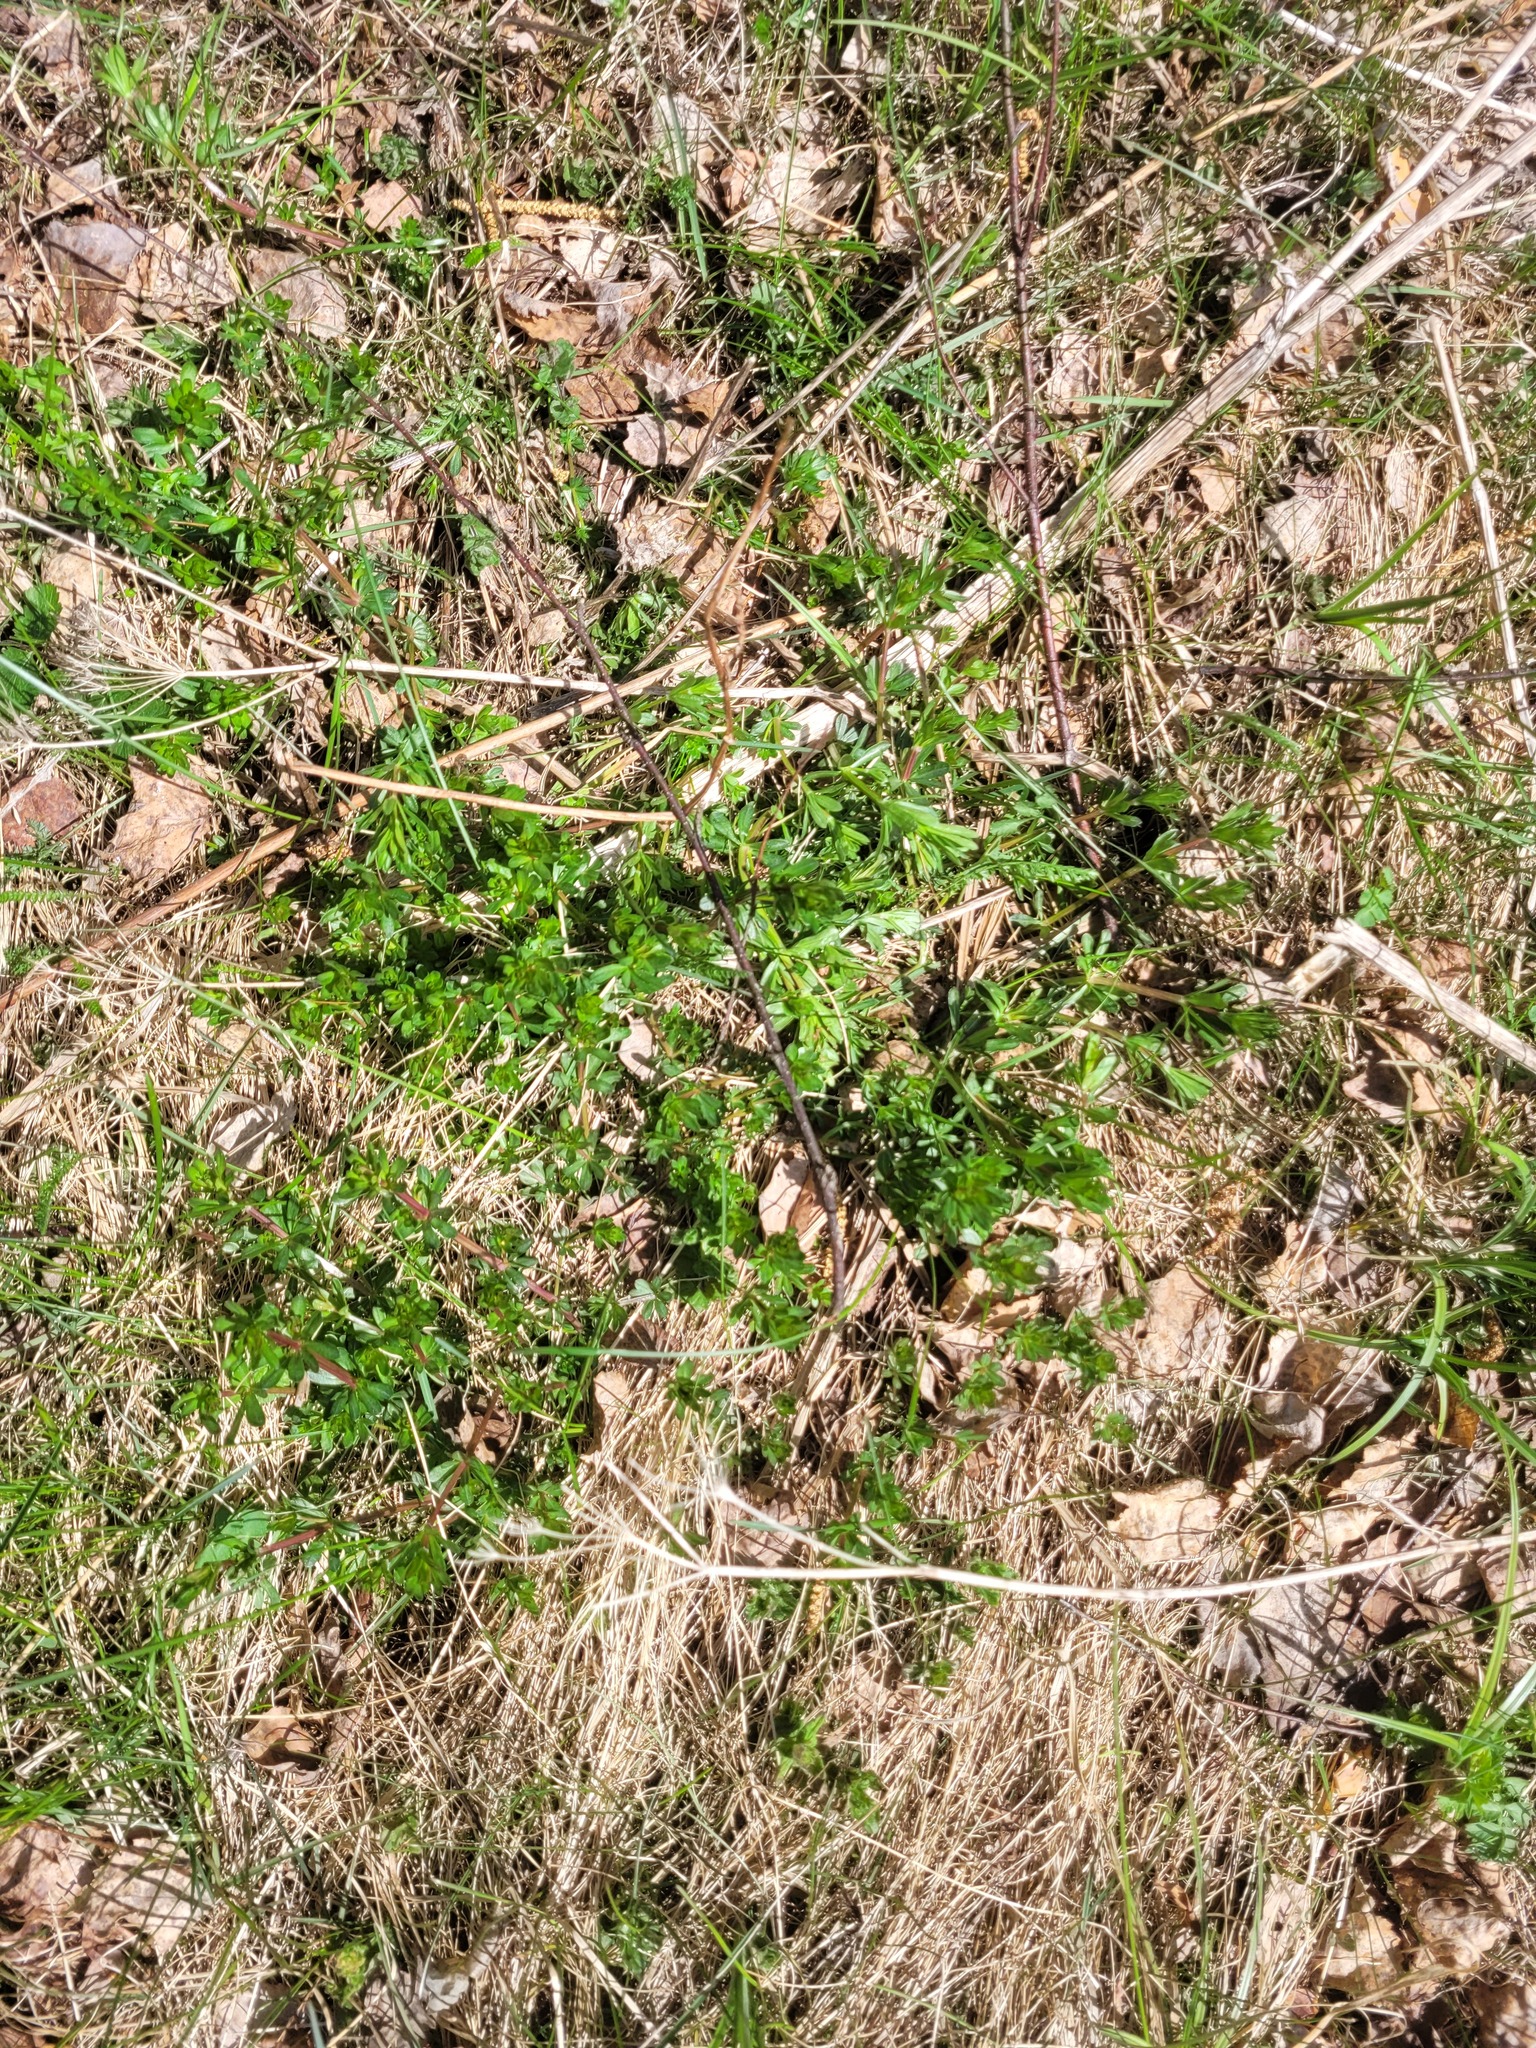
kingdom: Plantae
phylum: Tracheophyta
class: Magnoliopsida
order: Gentianales
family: Rubiaceae
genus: Galium
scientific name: Galium mollugo
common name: Hedge bedstraw
